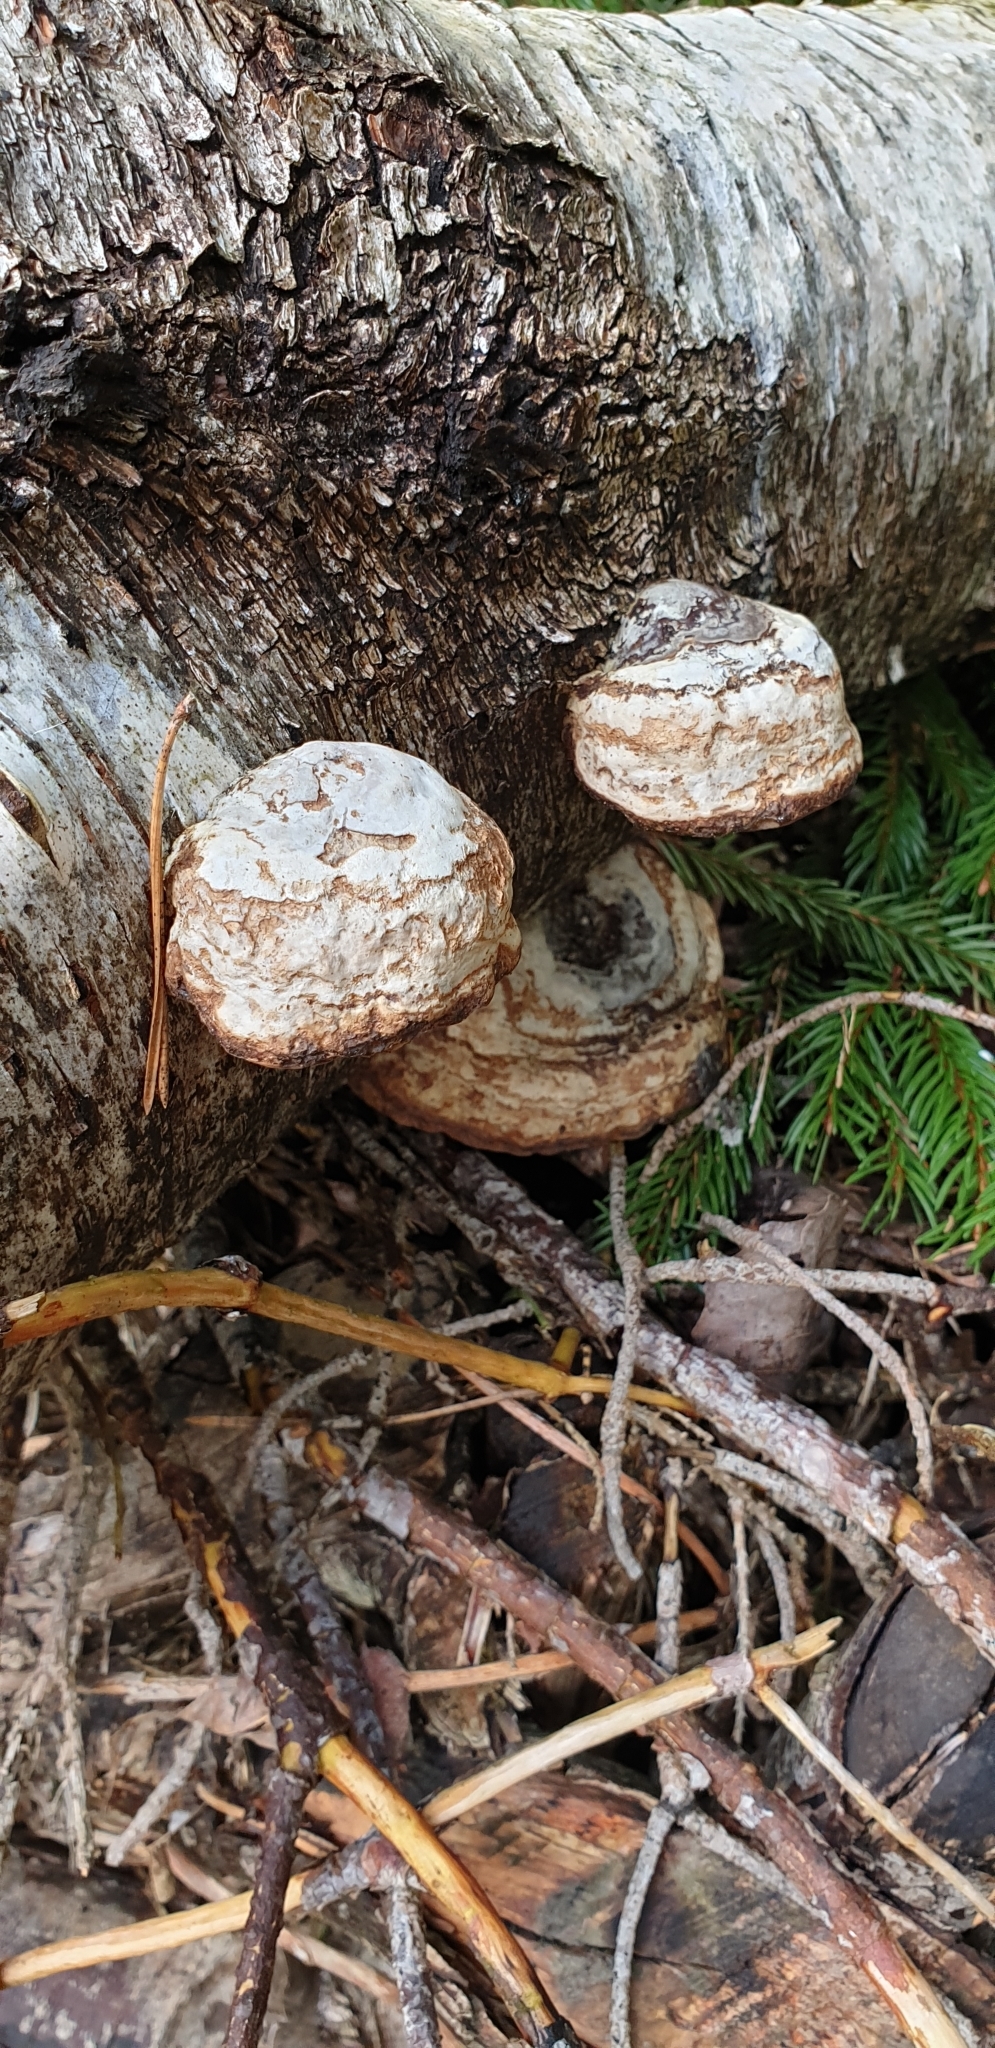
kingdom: Fungi
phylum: Basidiomycota
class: Agaricomycetes
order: Polyporales
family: Polyporaceae
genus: Fomes
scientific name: Fomes fomentarius
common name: Hoof fungus
